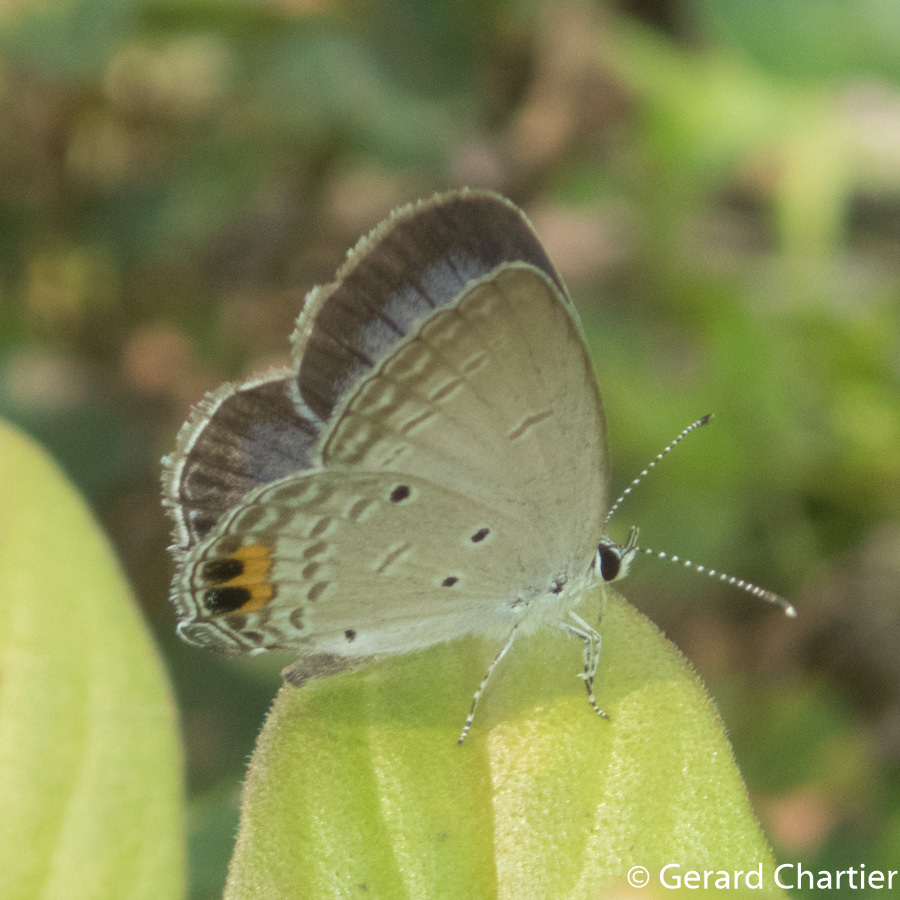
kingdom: Animalia
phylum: Arthropoda
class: Insecta
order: Lepidoptera
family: Lycaenidae
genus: Everes
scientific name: Everes lacturnus
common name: Orange-tipped pea-blue
